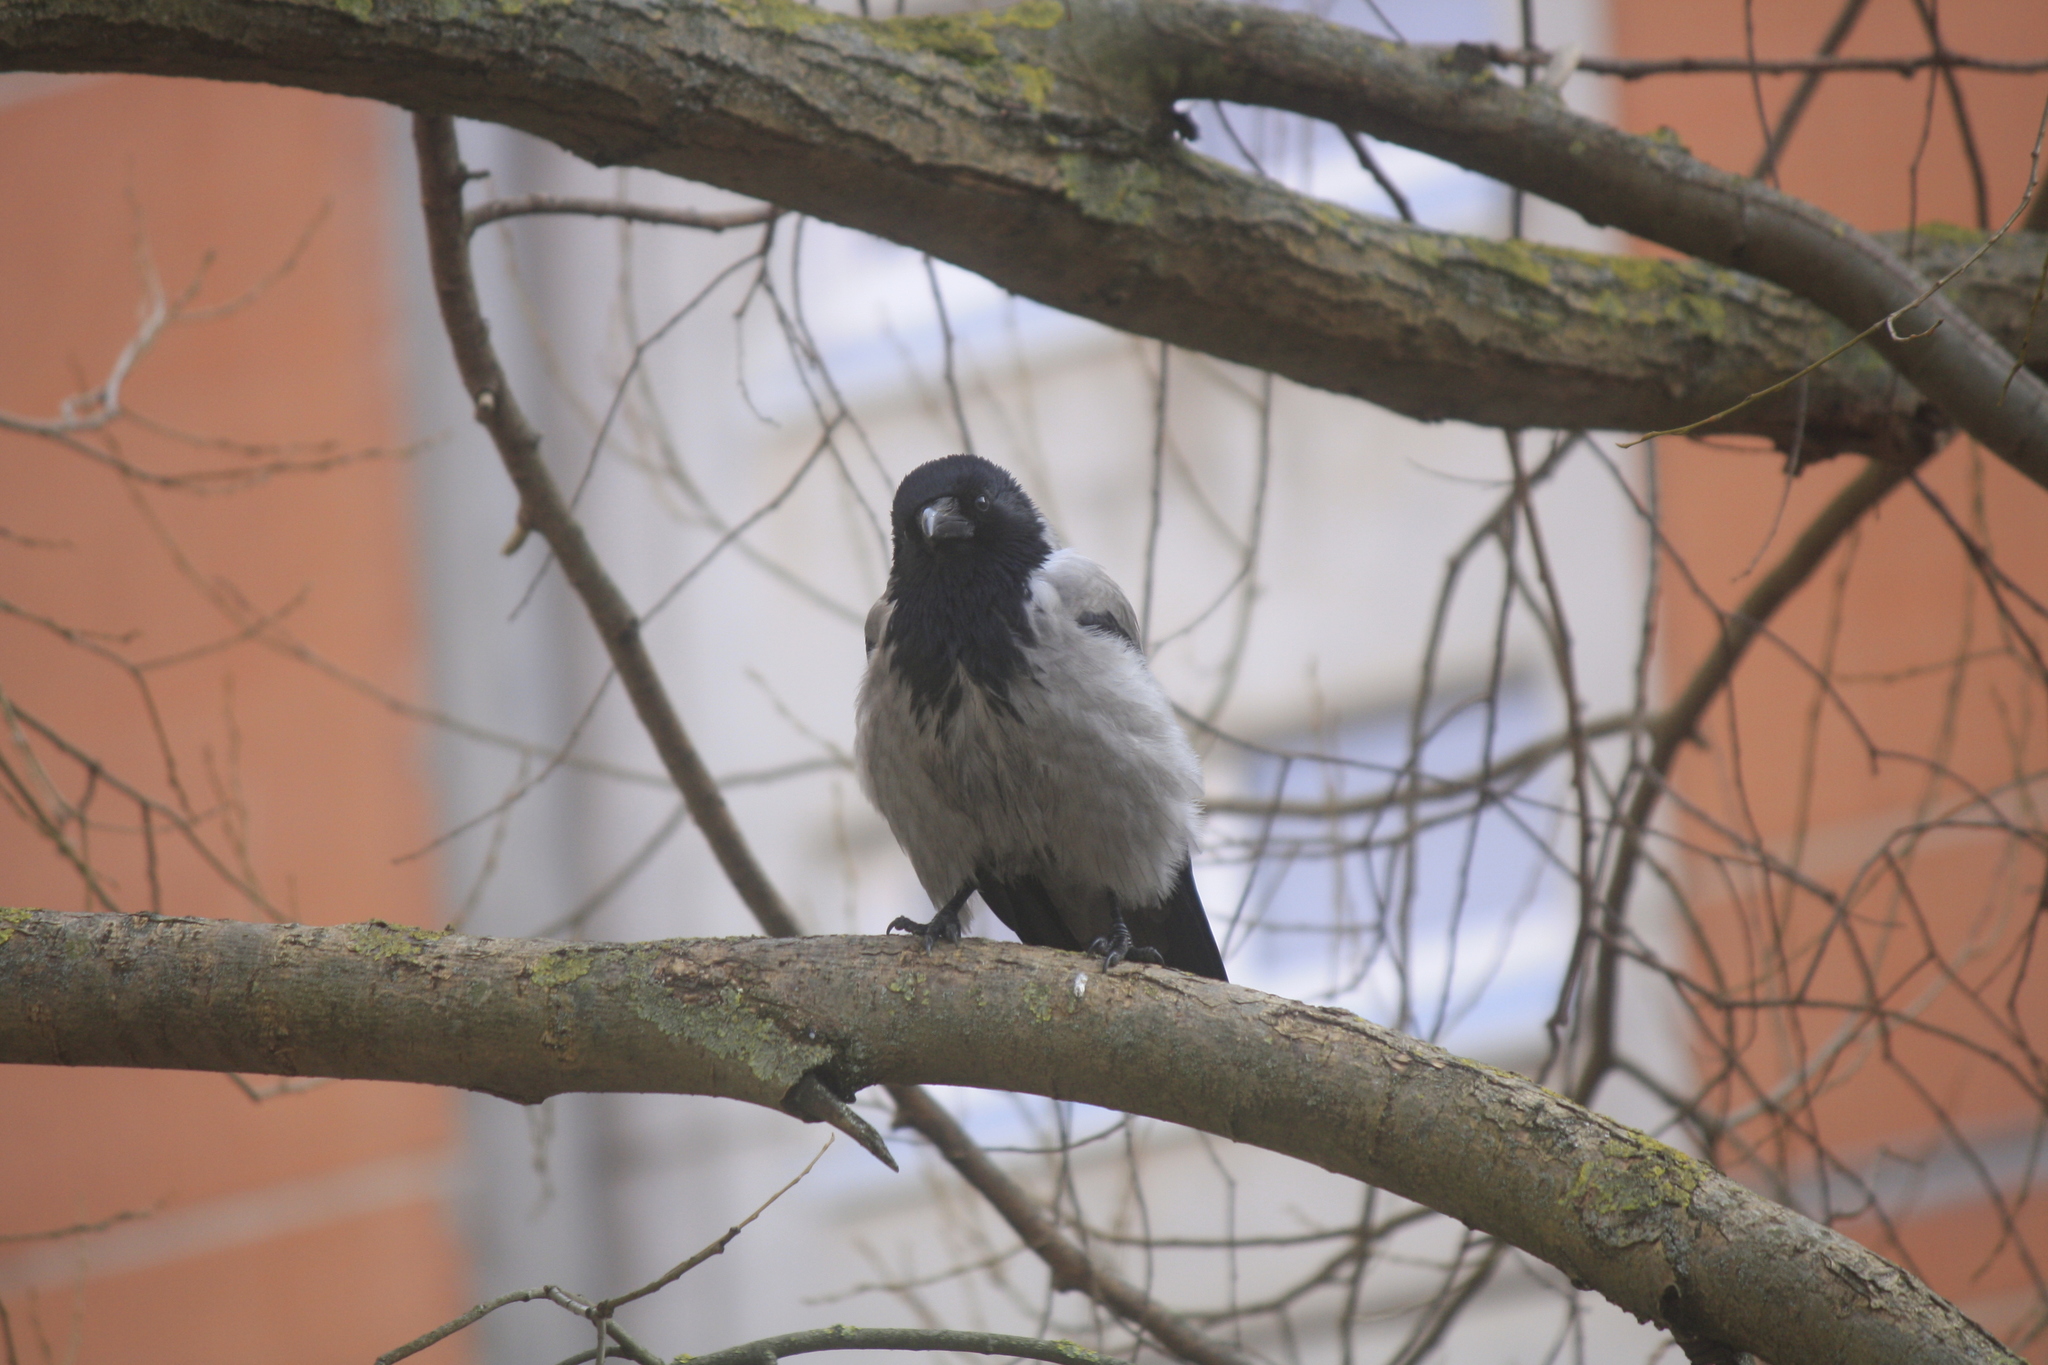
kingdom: Animalia
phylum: Chordata
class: Aves
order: Passeriformes
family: Corvidae
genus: Corvus
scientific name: Corvus cornix
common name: Hooded crow
